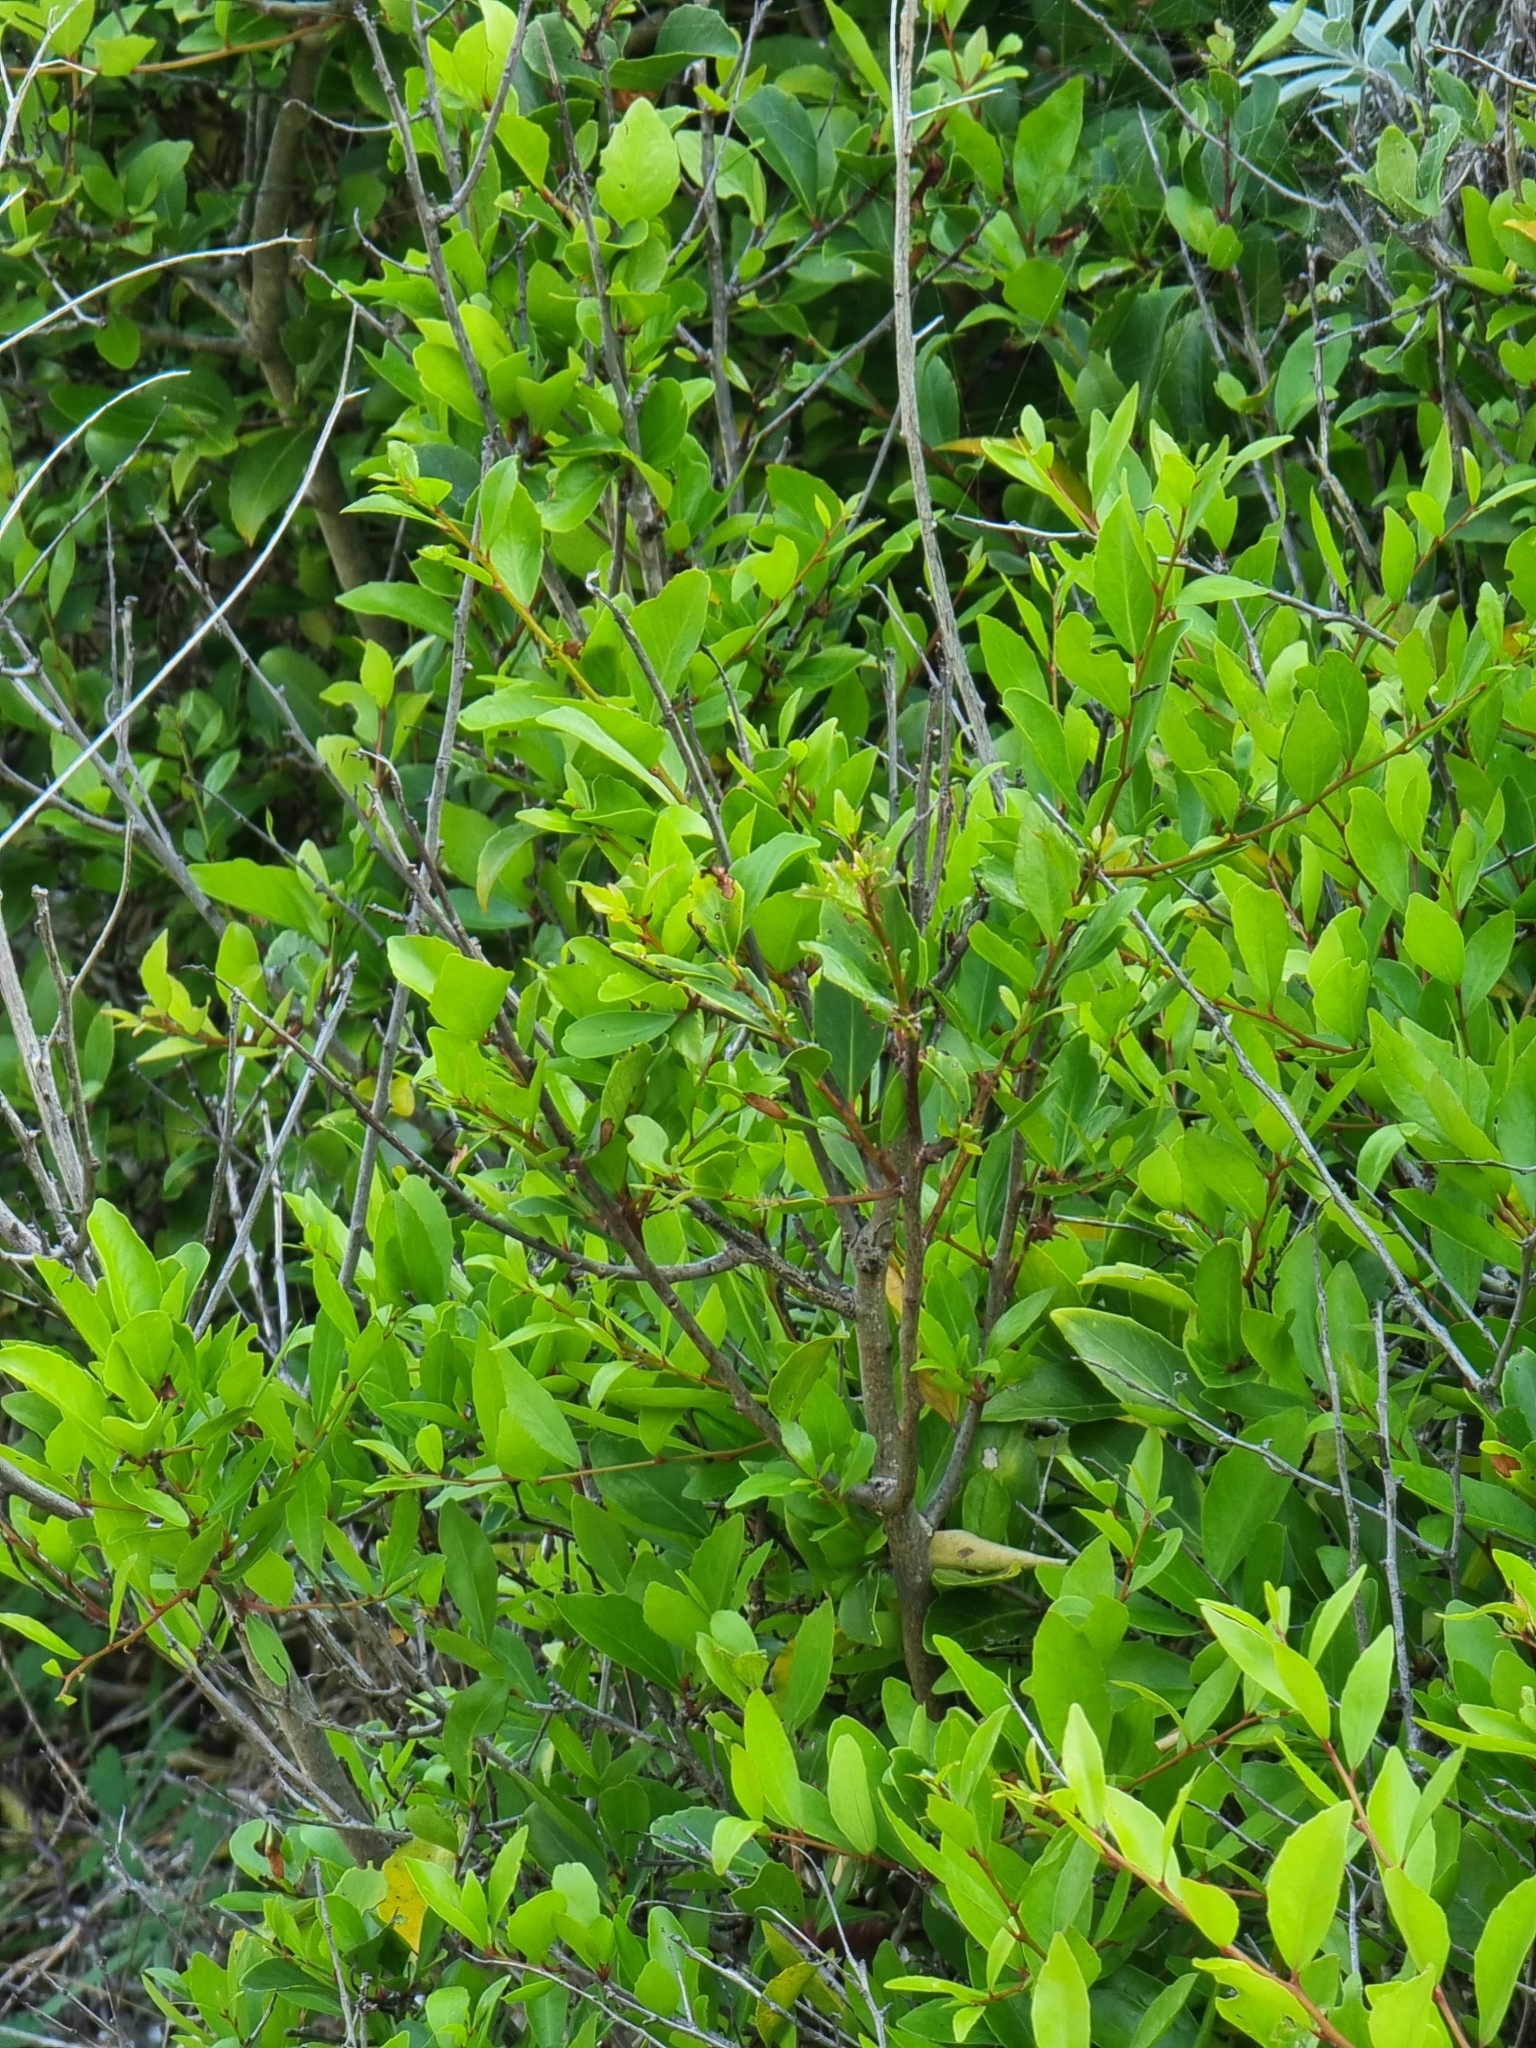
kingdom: Plantae
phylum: Tracheophyta
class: Magnoliopsida
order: Celastrales
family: Celastraceae
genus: Gymnosporia
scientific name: Gymnosporia dryandri
